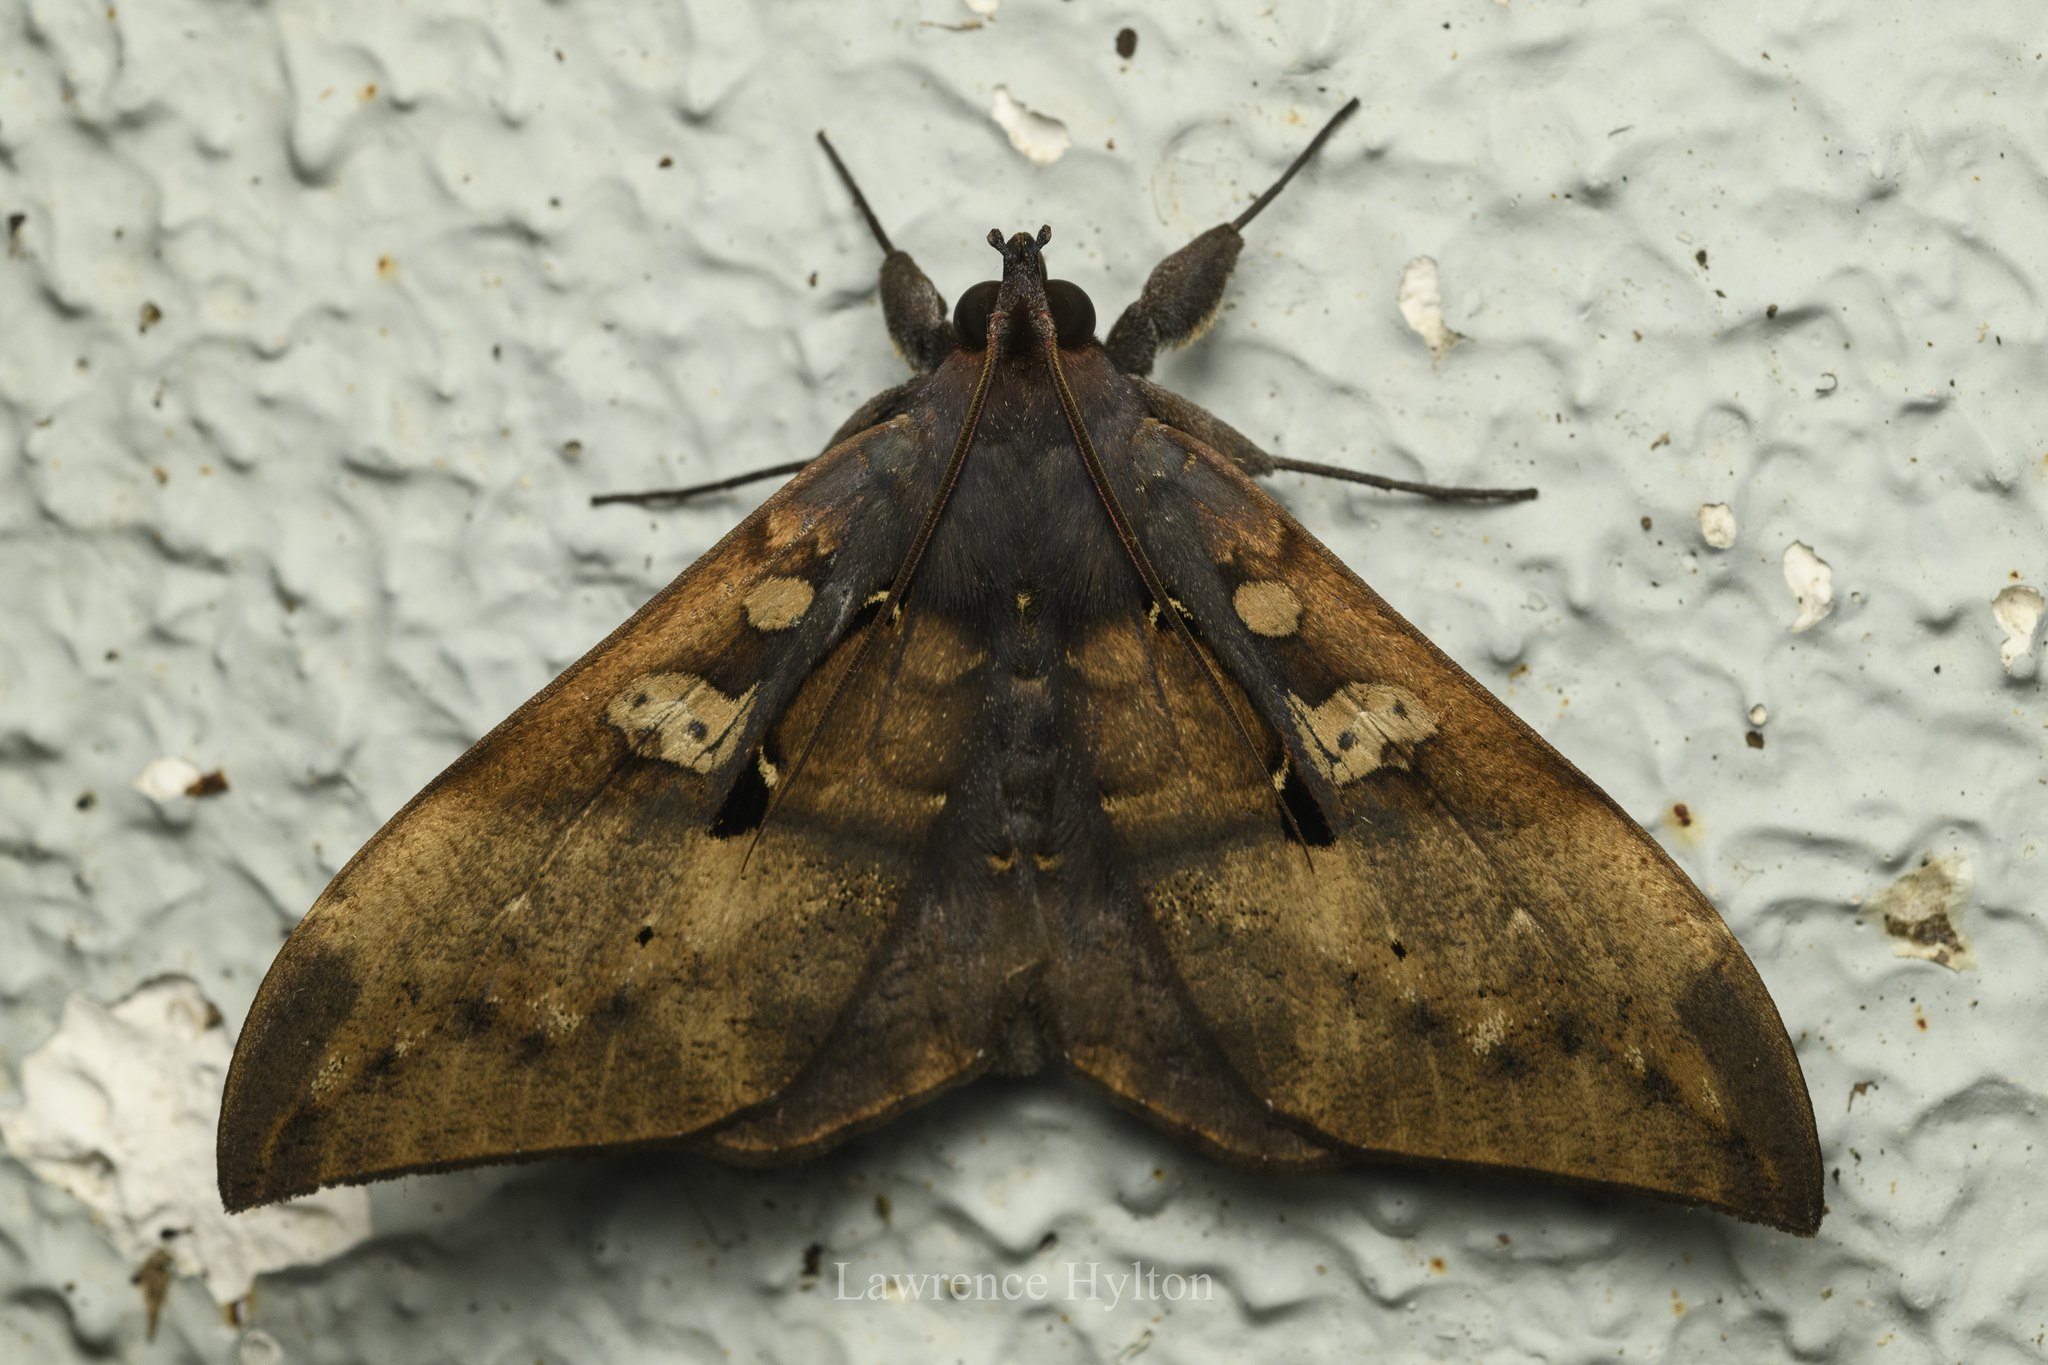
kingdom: Animalia
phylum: Arthropoda
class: Insecta
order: Lepidoptera
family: Erebidae
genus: Ischyja
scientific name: Ischyja manlia
